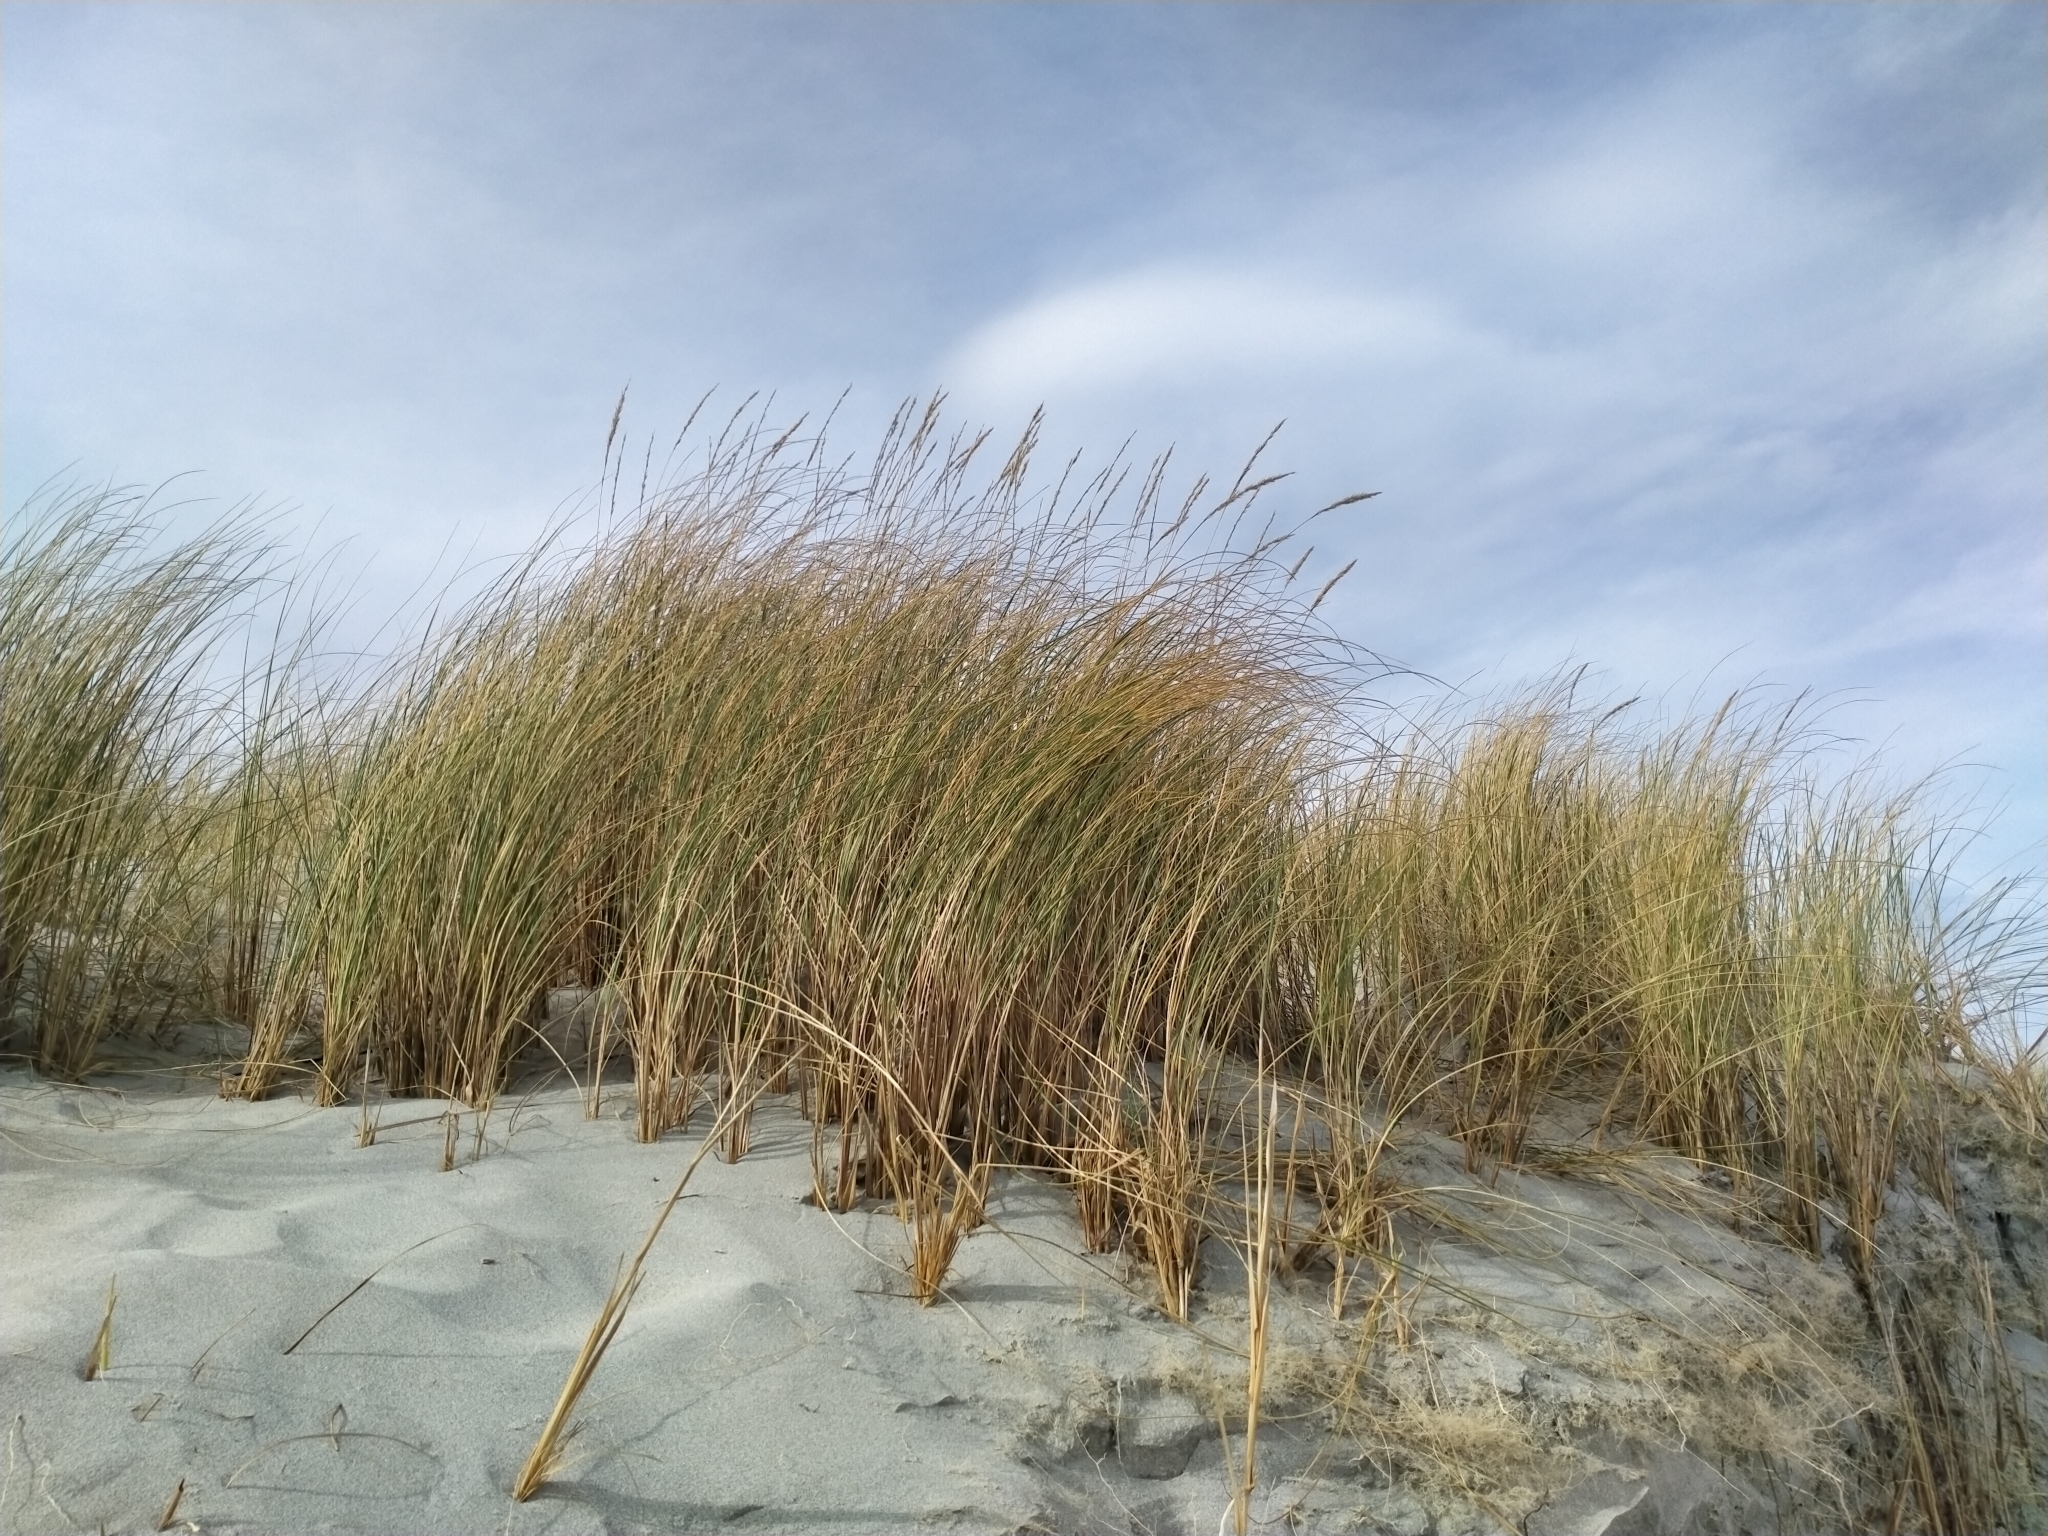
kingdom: Plantae
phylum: Tracheophyta
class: Liliopsida
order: Poales
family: Poaceae
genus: Calamagrostis
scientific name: Calamagrostis arenaria
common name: European beachgrass
